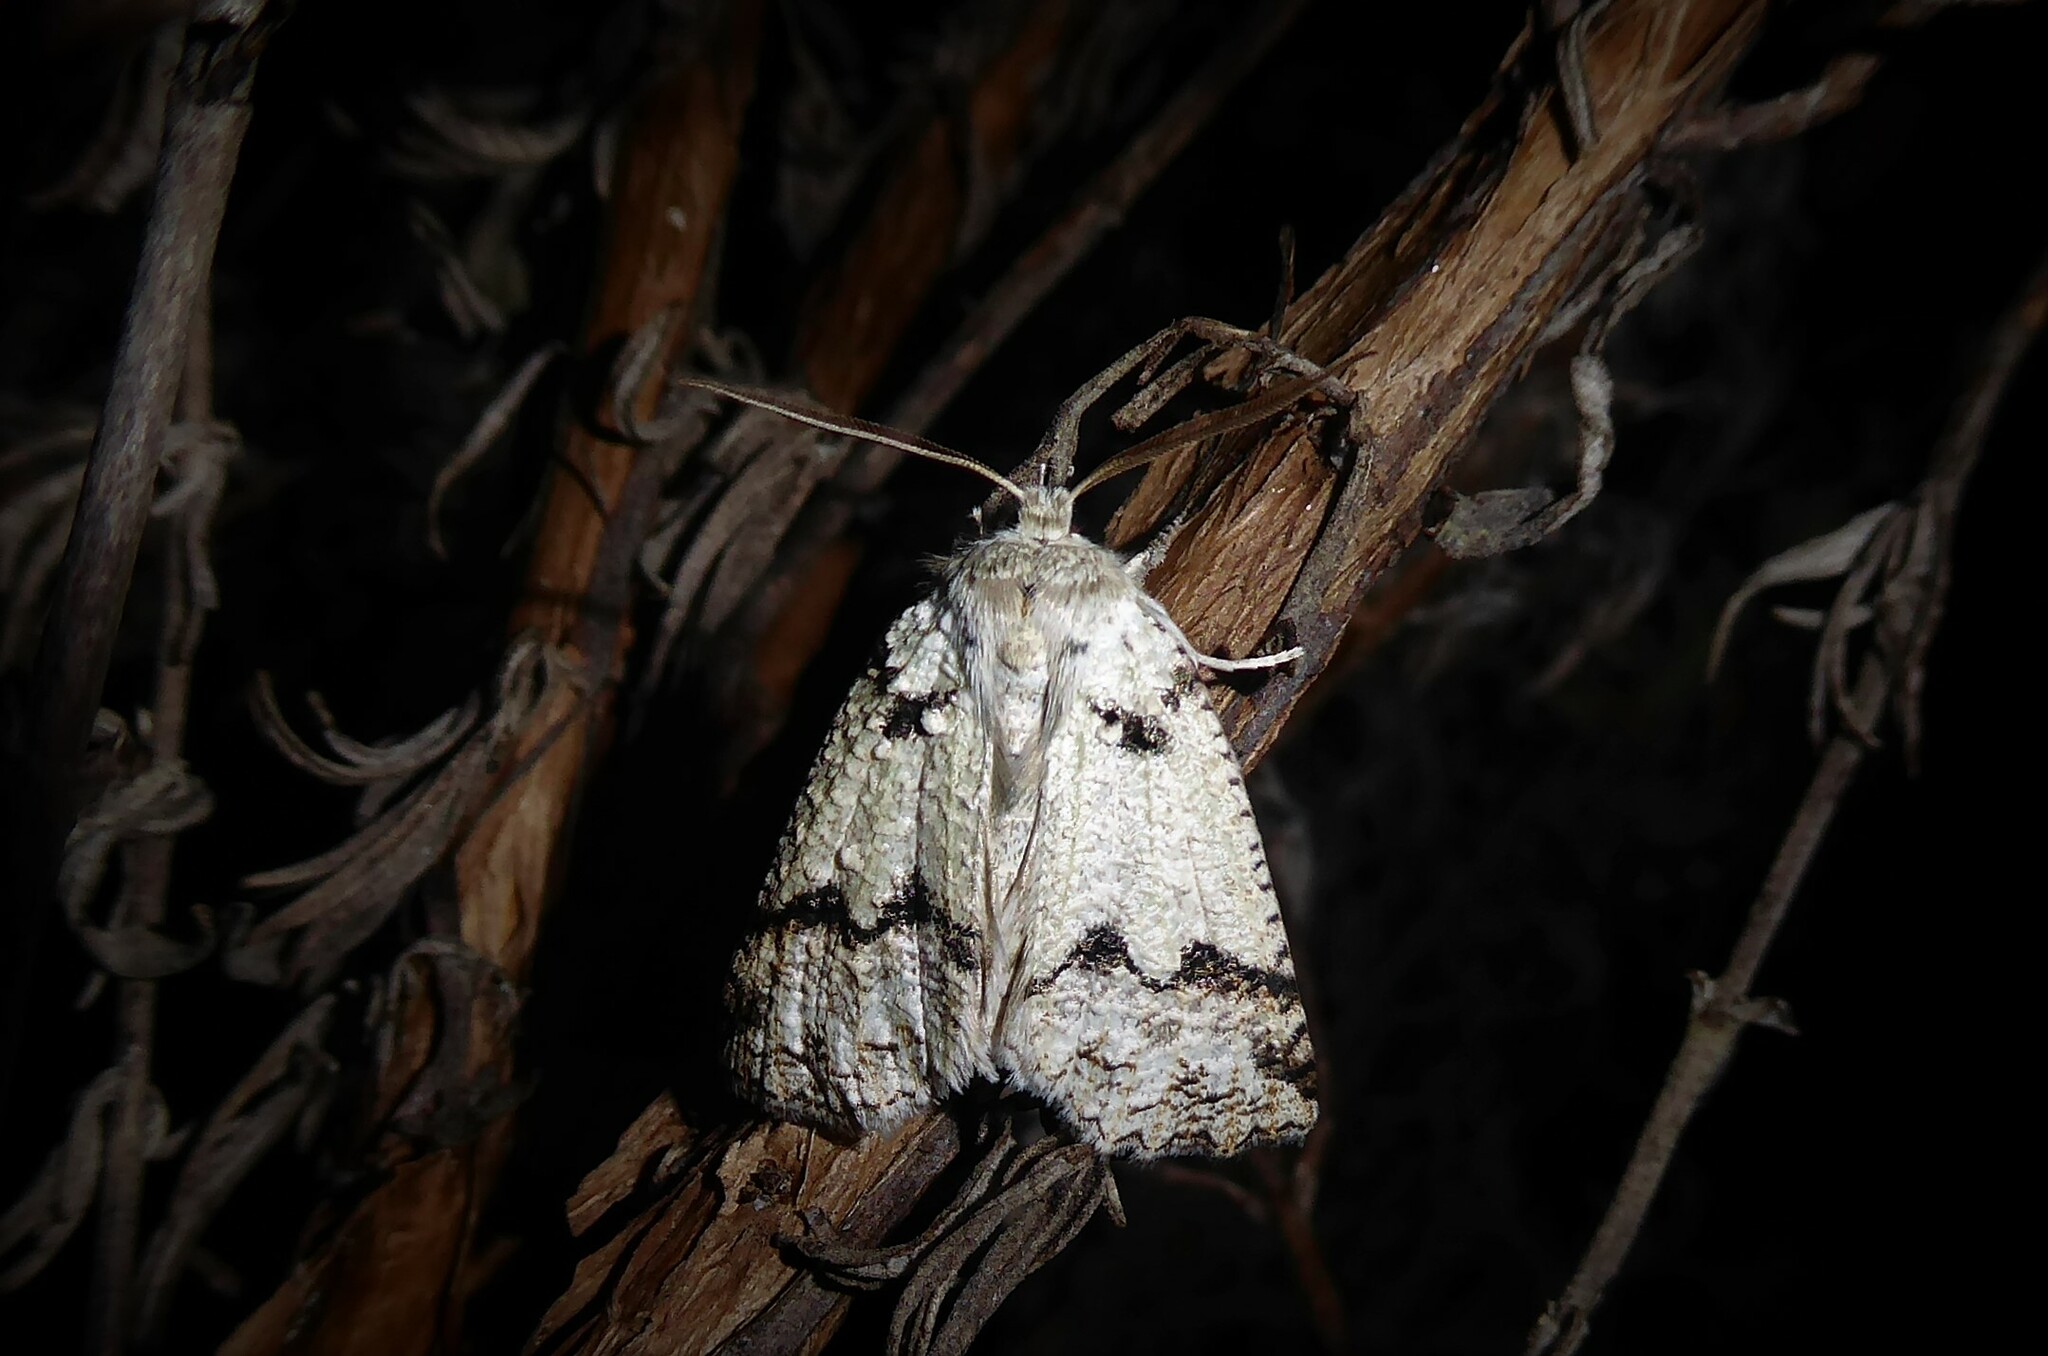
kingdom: Animalia
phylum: Arthropoda
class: Insecta
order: Lepidoptera
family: Geometridae
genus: Declana
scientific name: Declana floccosa
